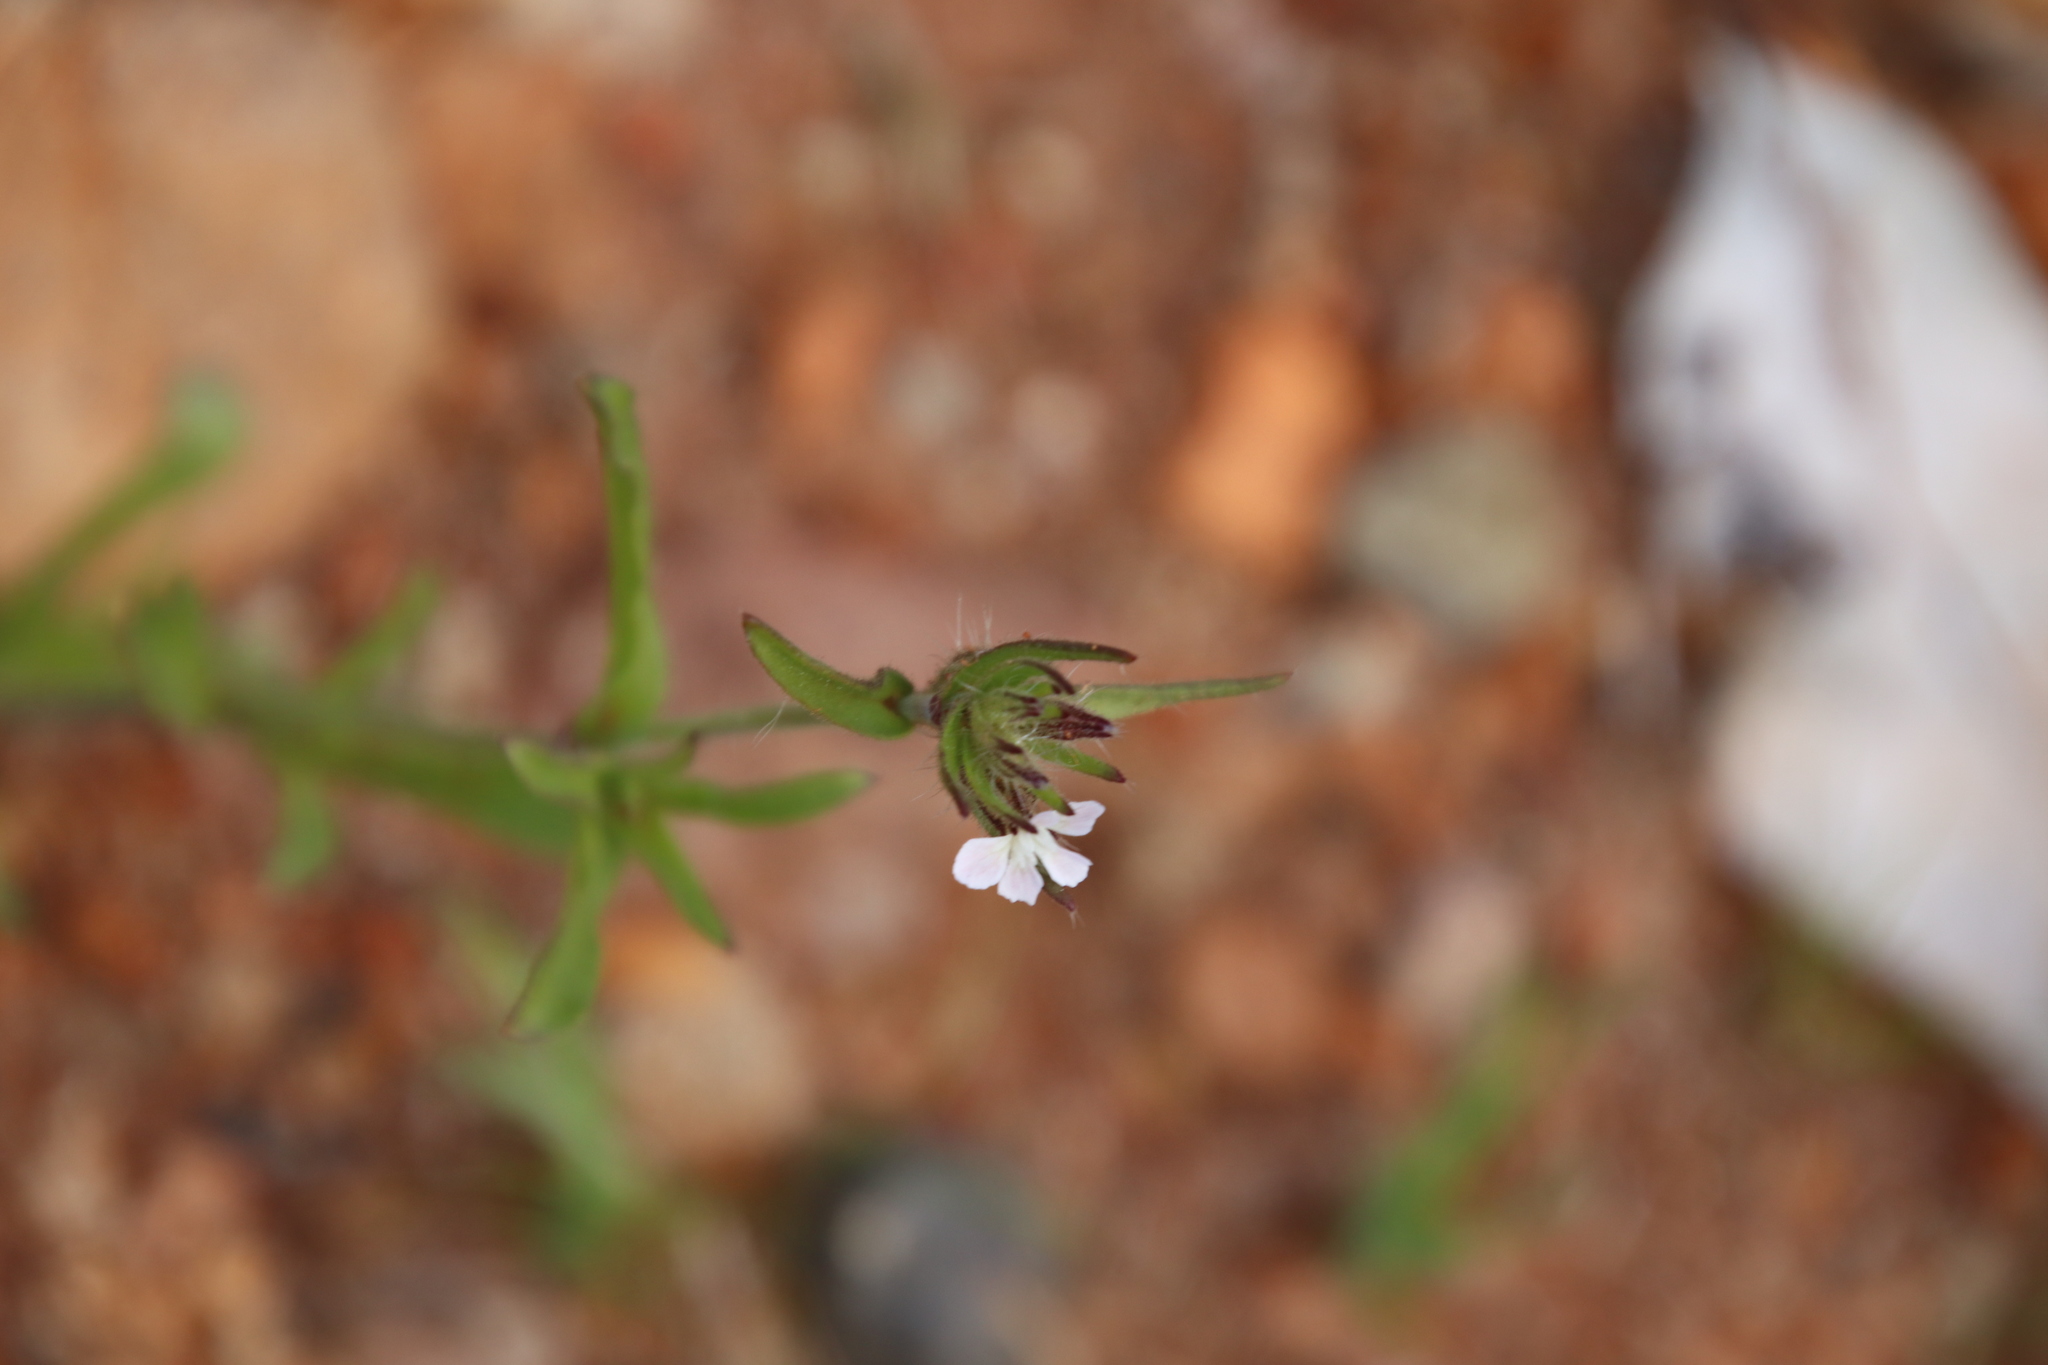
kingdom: Plantae
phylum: Tracheophyta
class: Magnoliopsida
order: Caryophyllales
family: Caryophyllaceae
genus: Silene
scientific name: Silene gallica
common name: Small-flowered catchfly
